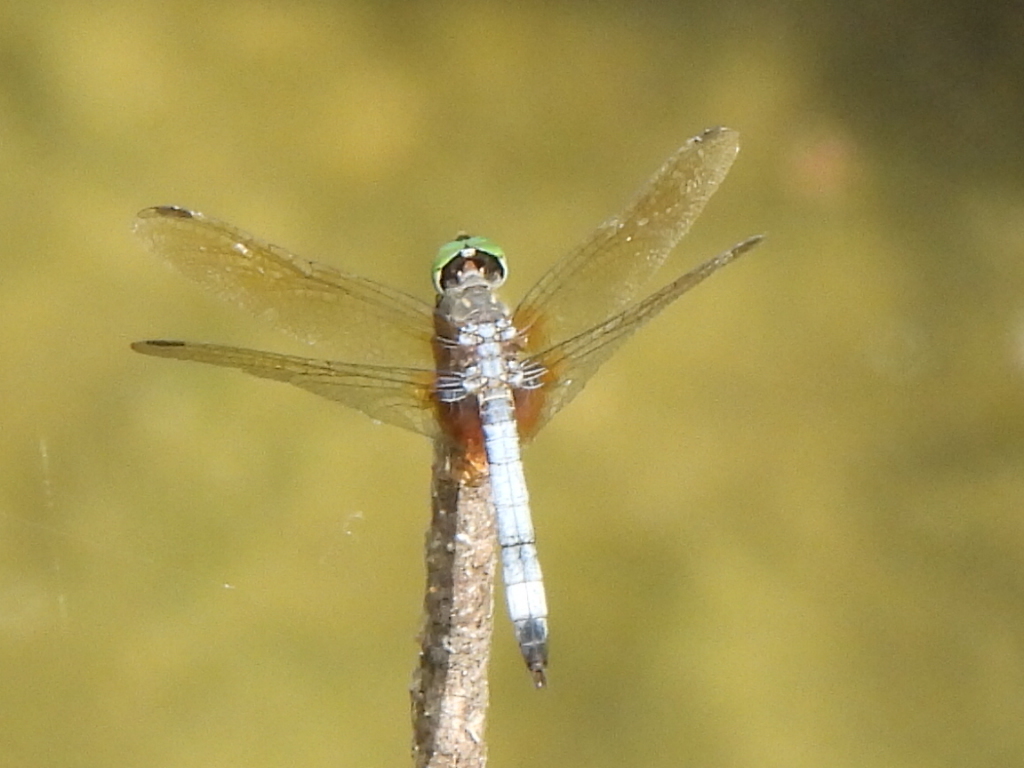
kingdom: Animalia
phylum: Arthropoda
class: Insecta
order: Odonata
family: Libellulidae
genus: Pachydiplax
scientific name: Pachydiplax longipennis
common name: Blue dasher
